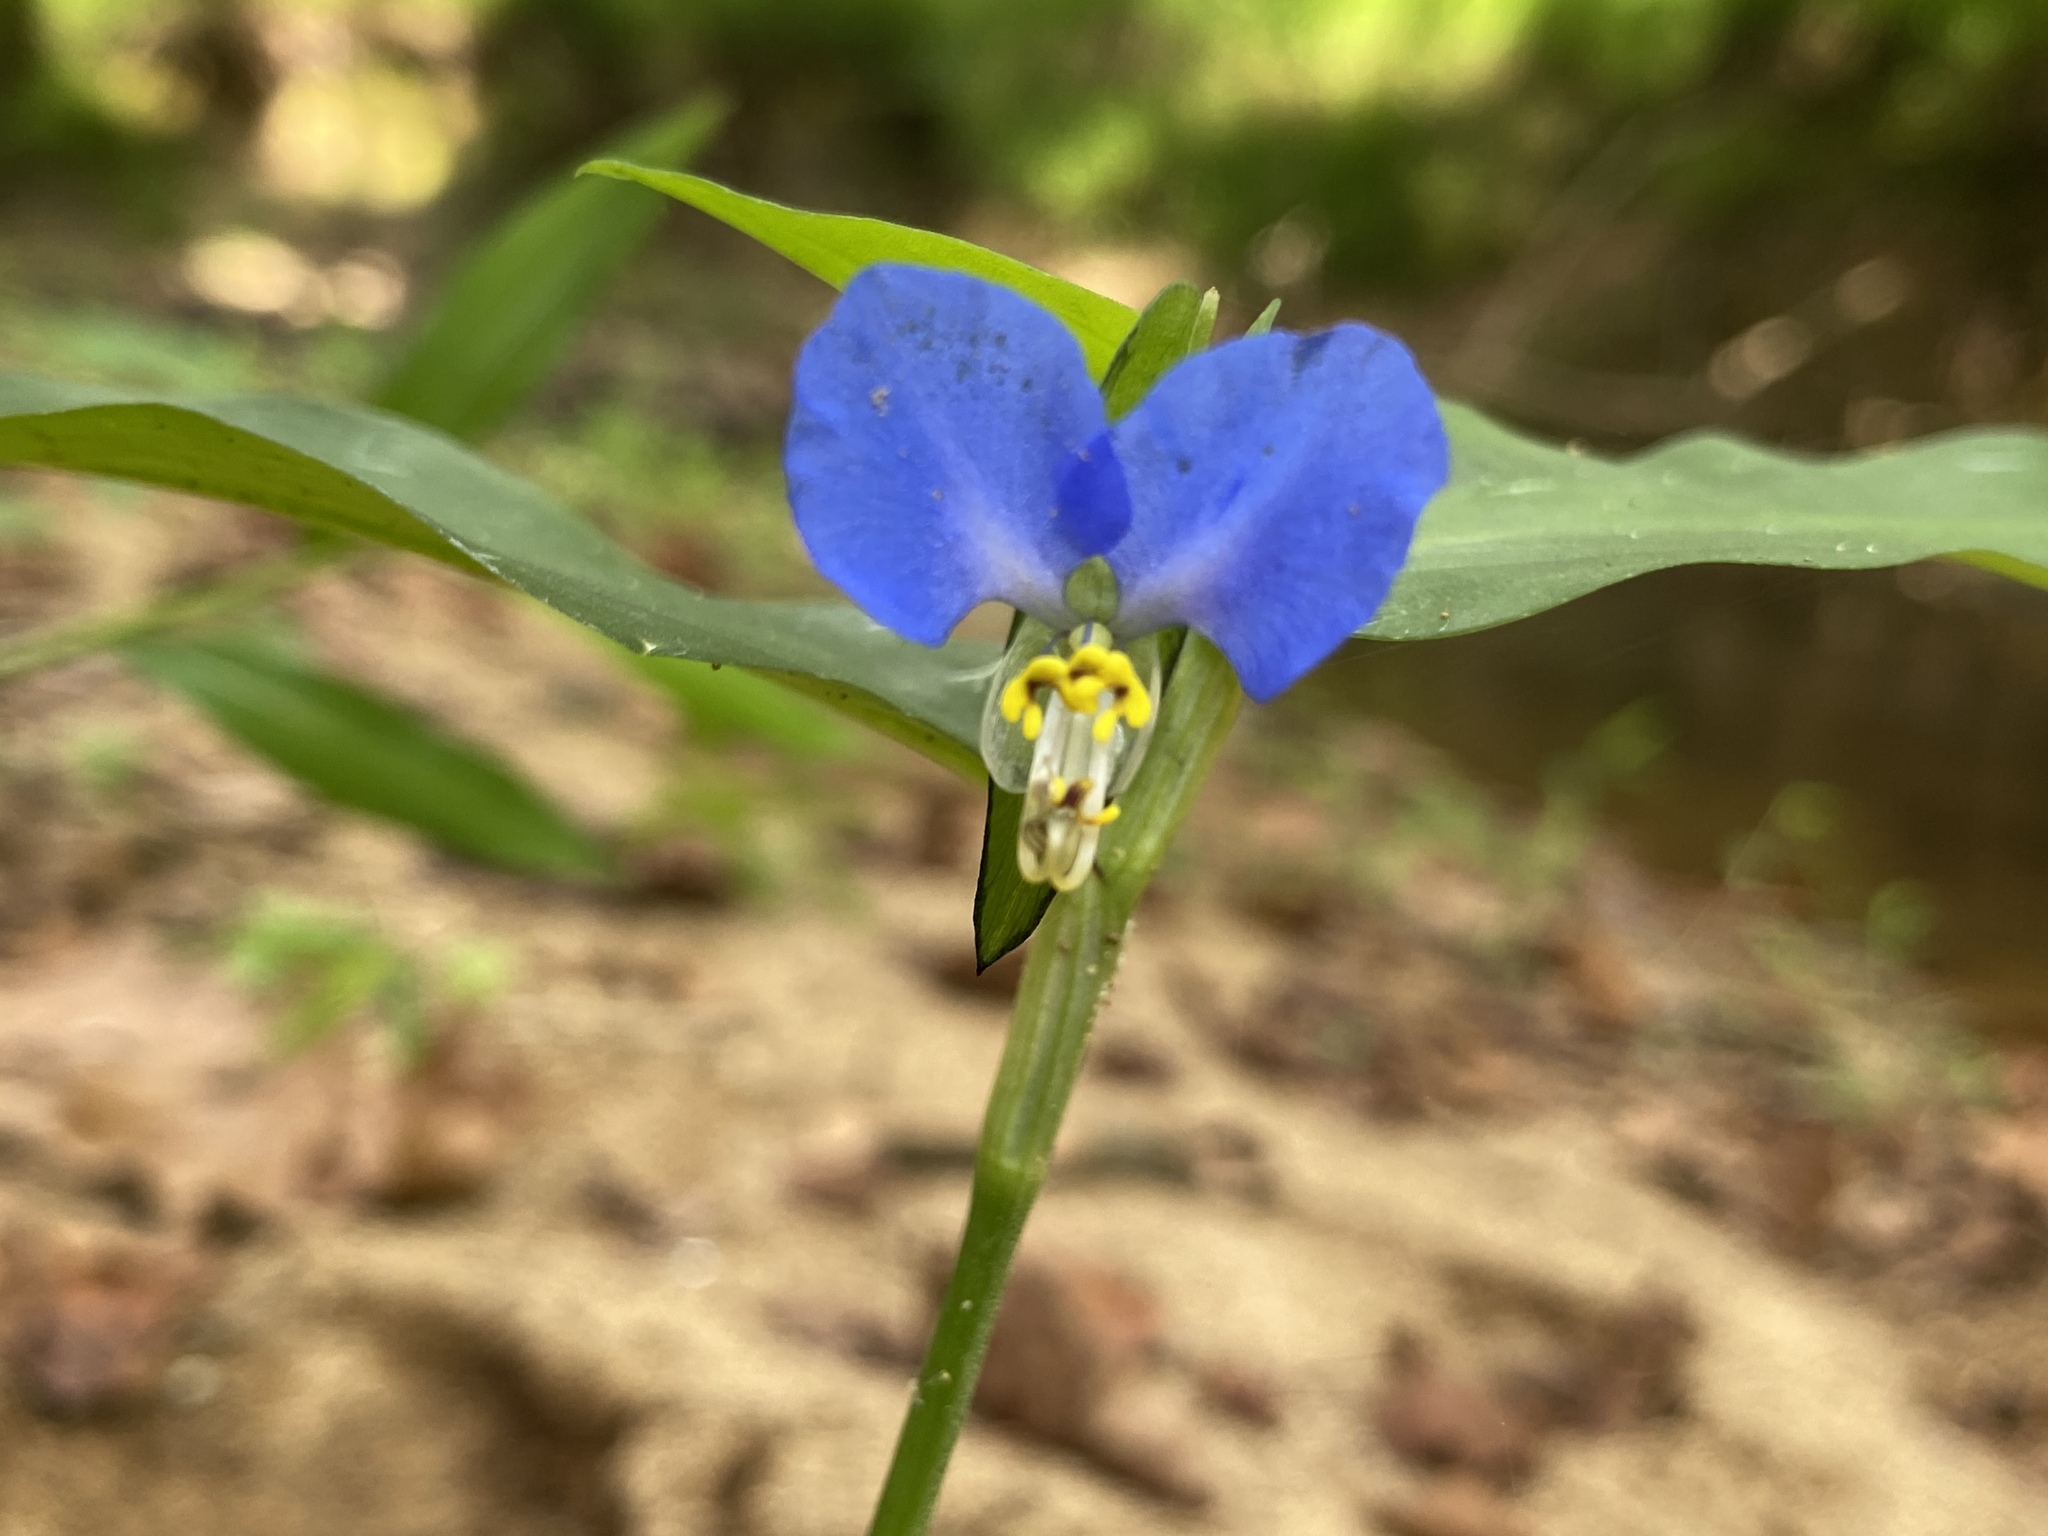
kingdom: Plantae
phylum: Tracheophyta
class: Liliopsida
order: Commelinales
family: Commelinaceae
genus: Commelina
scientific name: Commelina communis
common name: Asiatic dayflower
